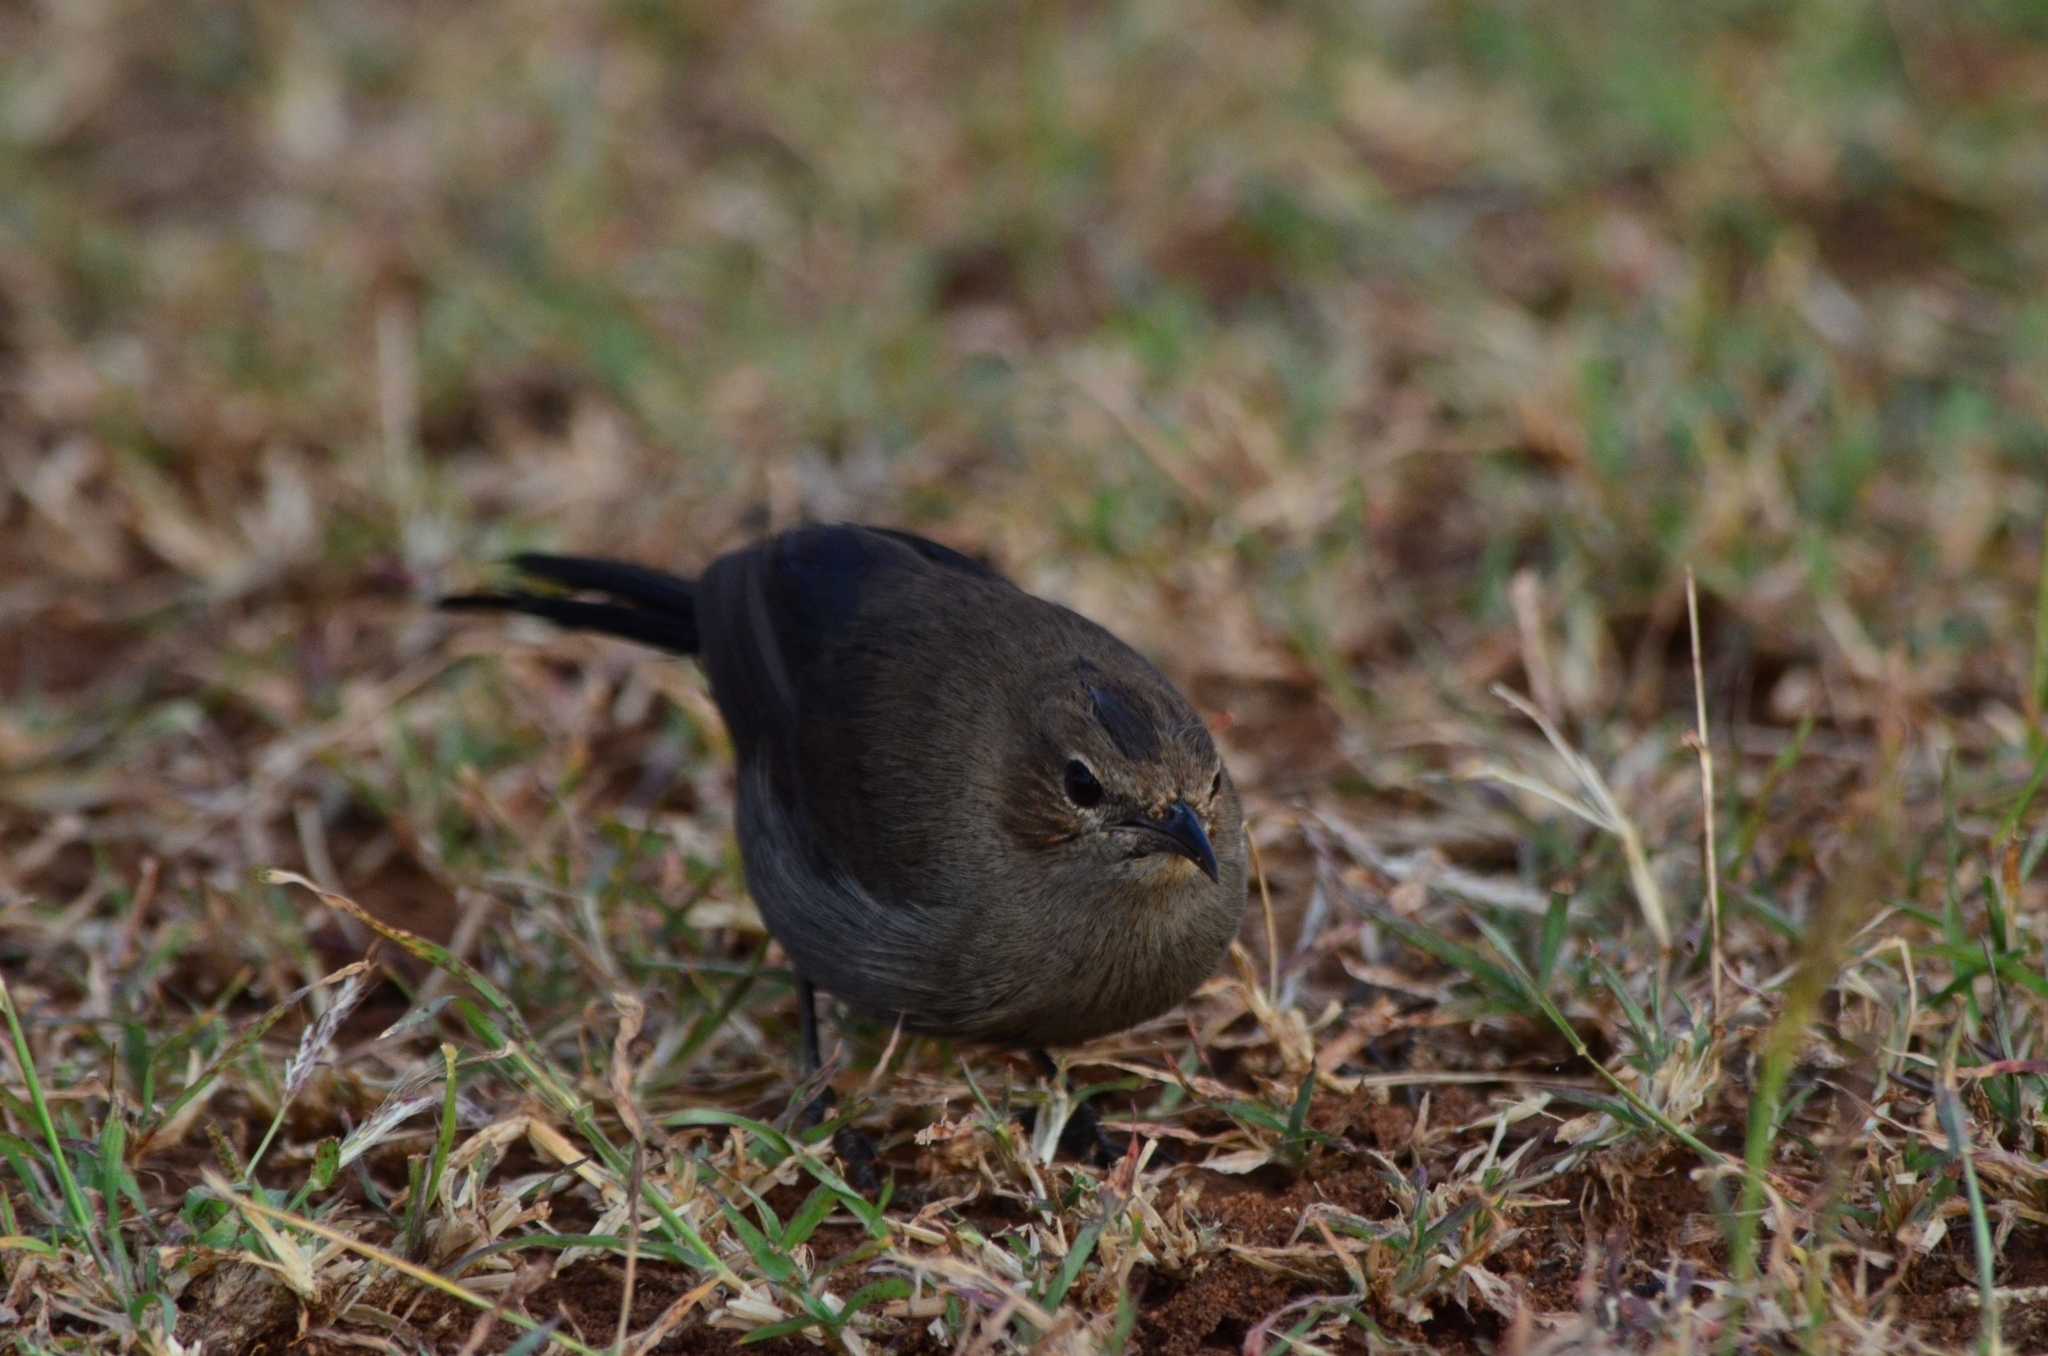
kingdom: Animalia
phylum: Chordata
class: Aves
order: Passeriformes
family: Muscicapidae
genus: Saxicoloides
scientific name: Saxicoloides fulicatus
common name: Indian robin
